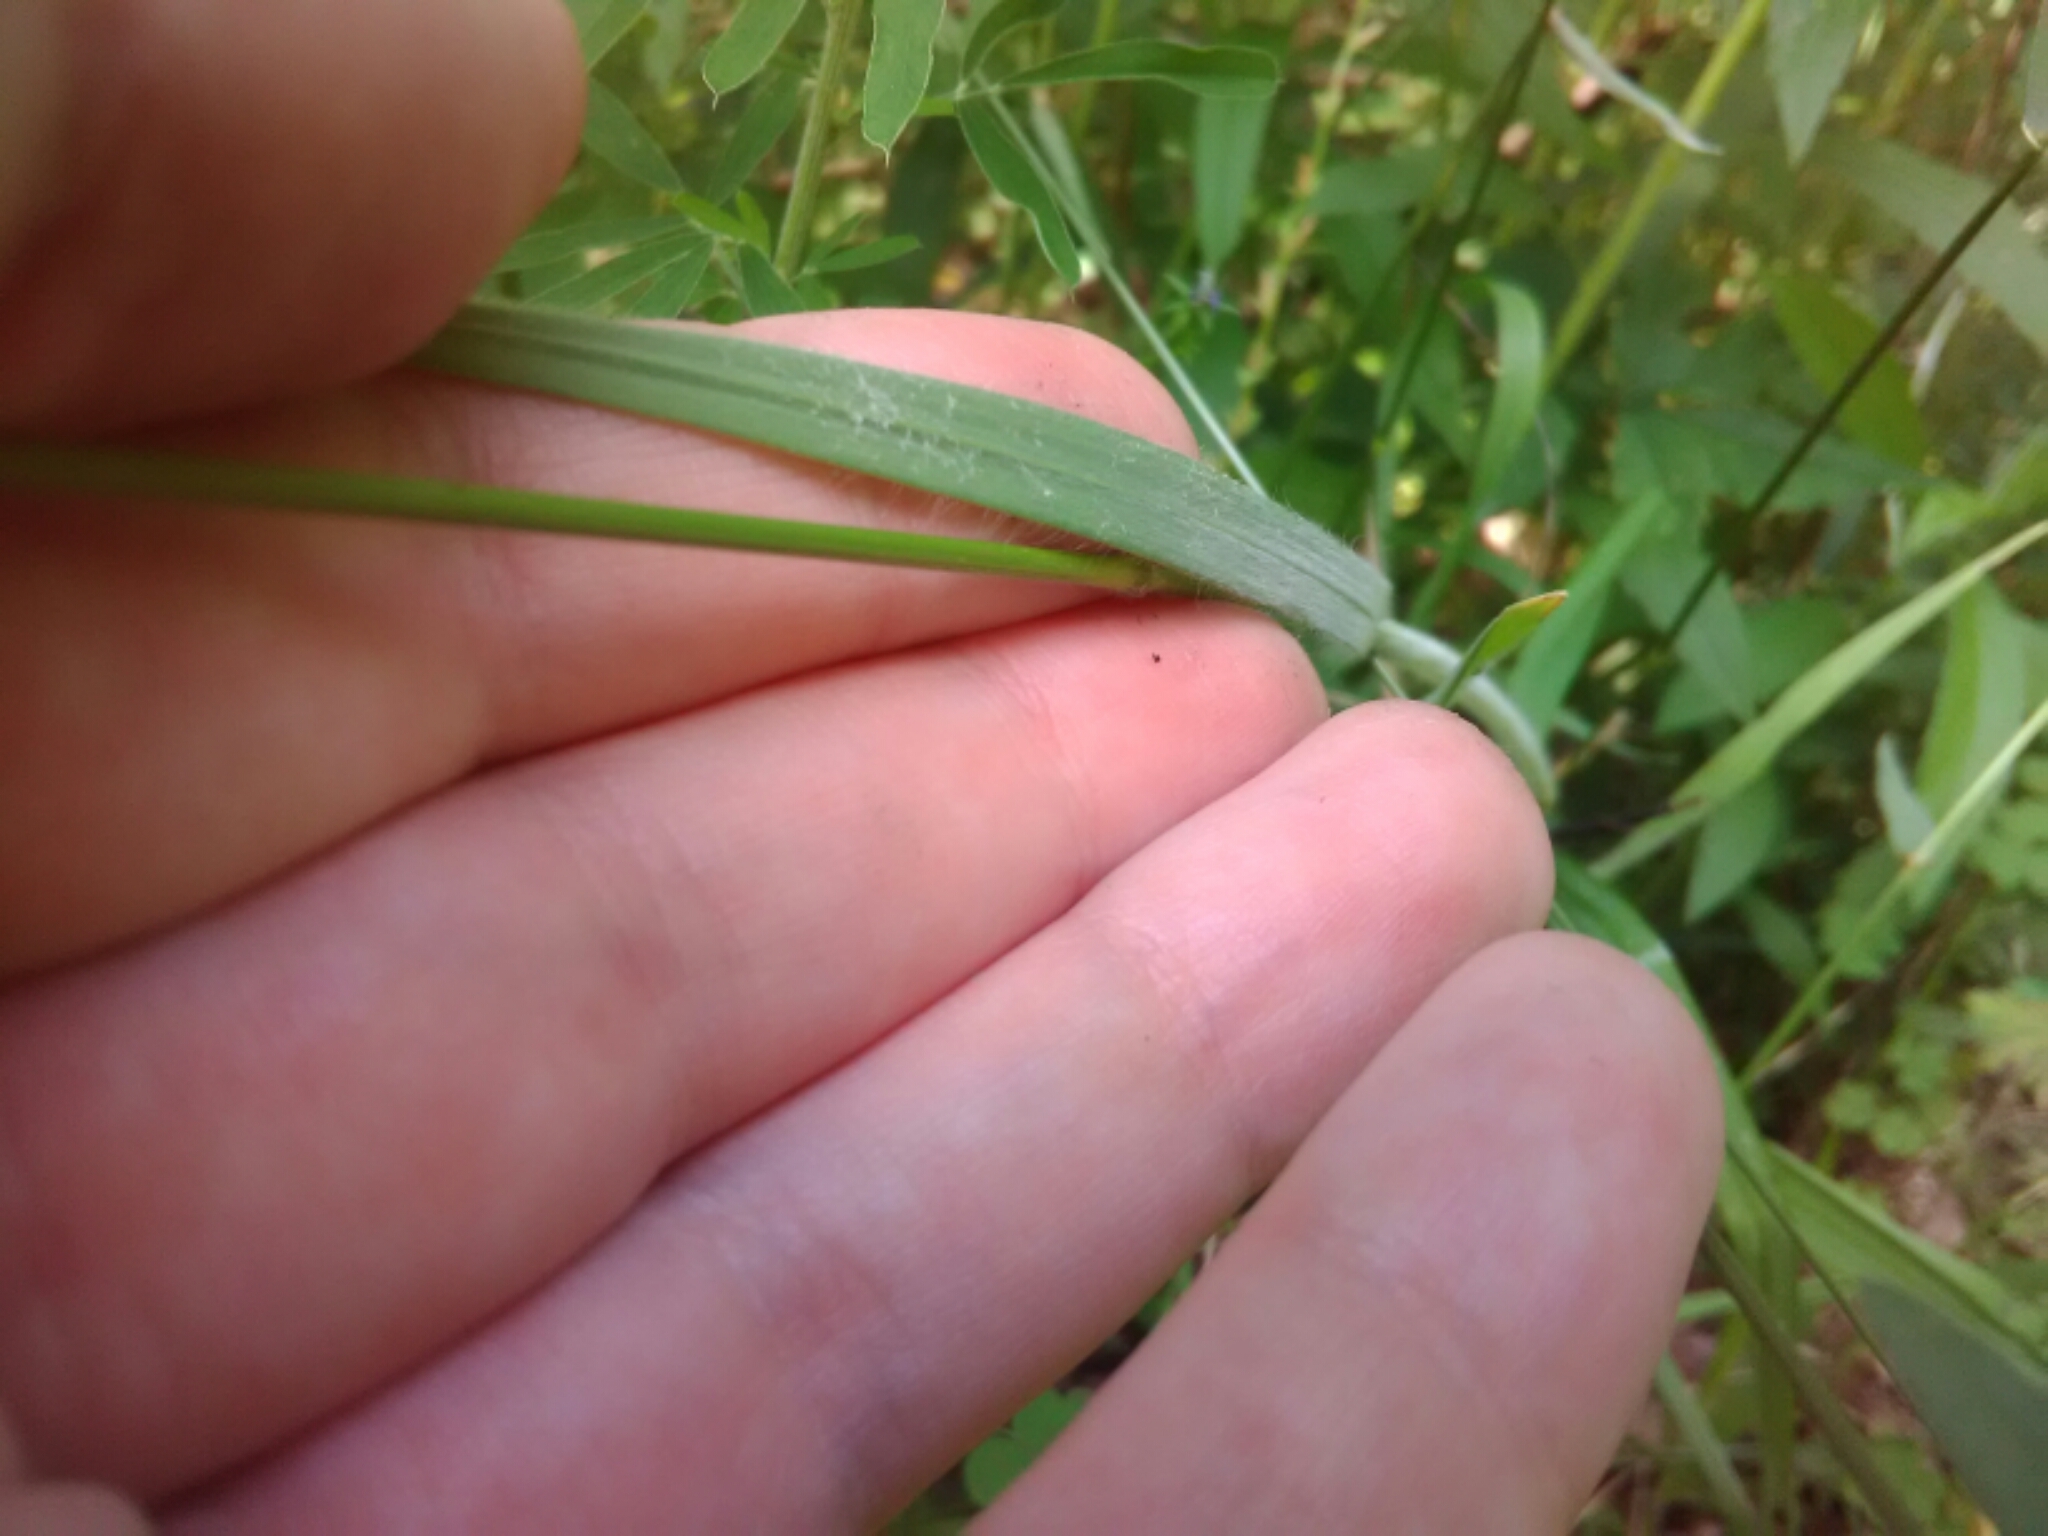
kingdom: Plantae
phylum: Tracheophyta
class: Liliopsida
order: Poales
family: Poaceae
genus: Bromus
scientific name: Bromus arvensis
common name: Field brome
